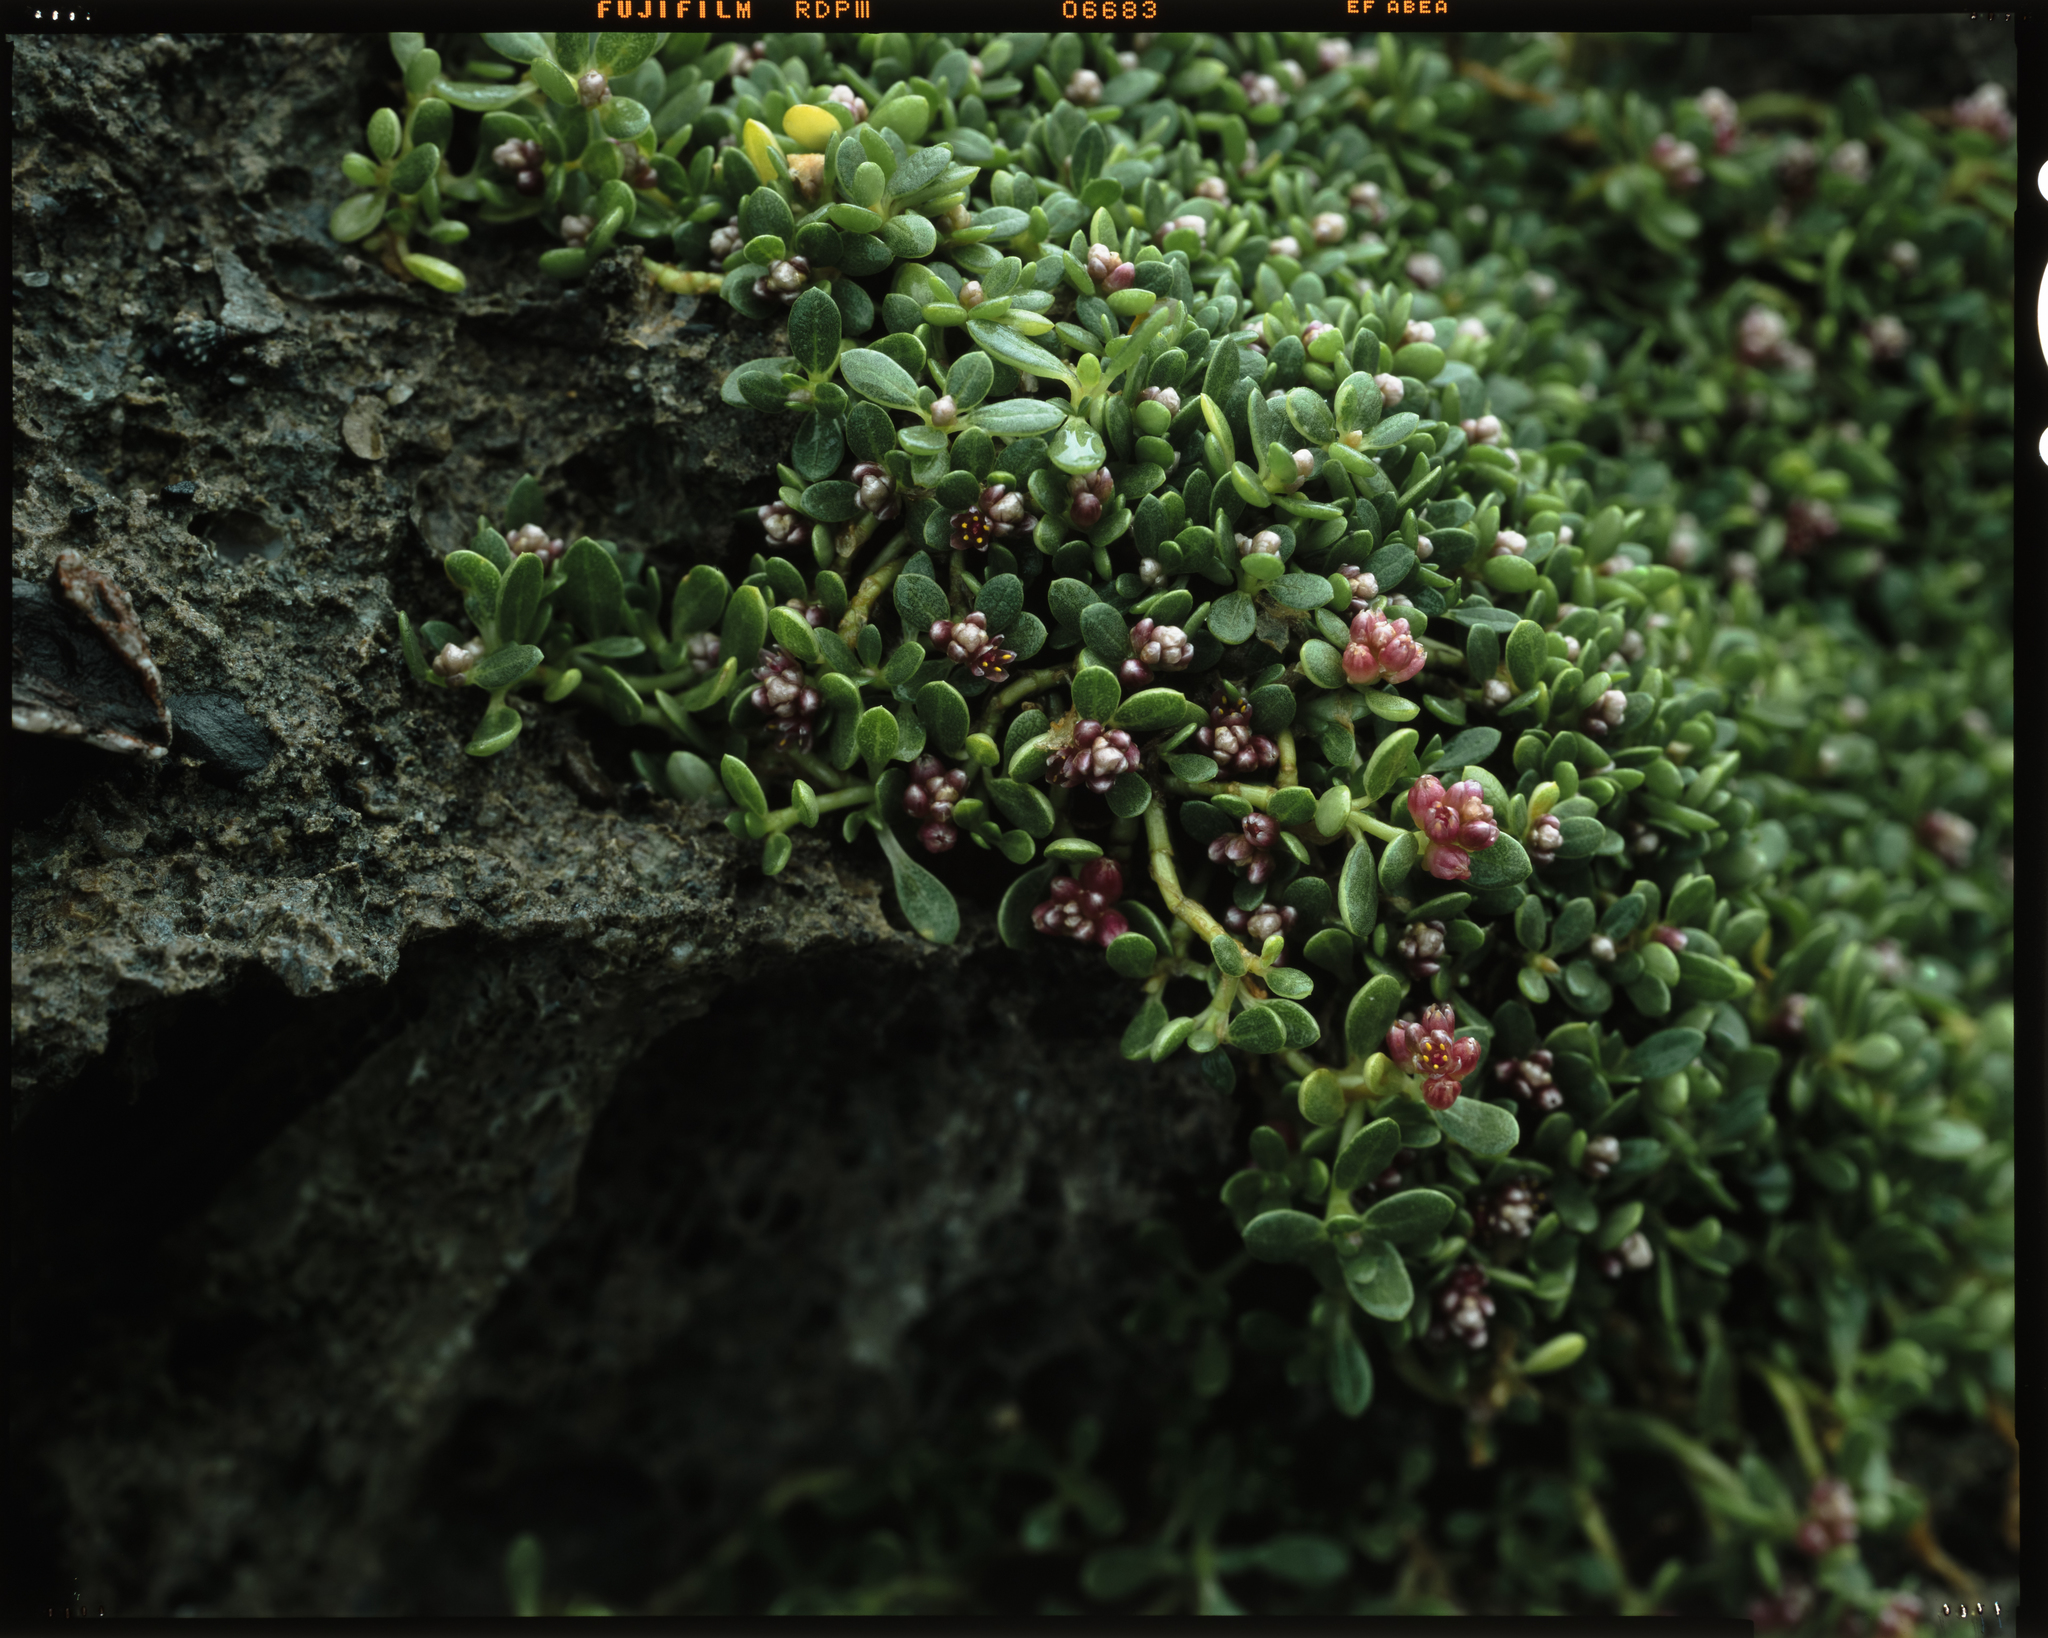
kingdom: Plantae
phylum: Tracheophyta
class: Magnoliopsida
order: Caryophyllales
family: Amaranthaceae
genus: Gomphrena
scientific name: Gomphrena wrightii
